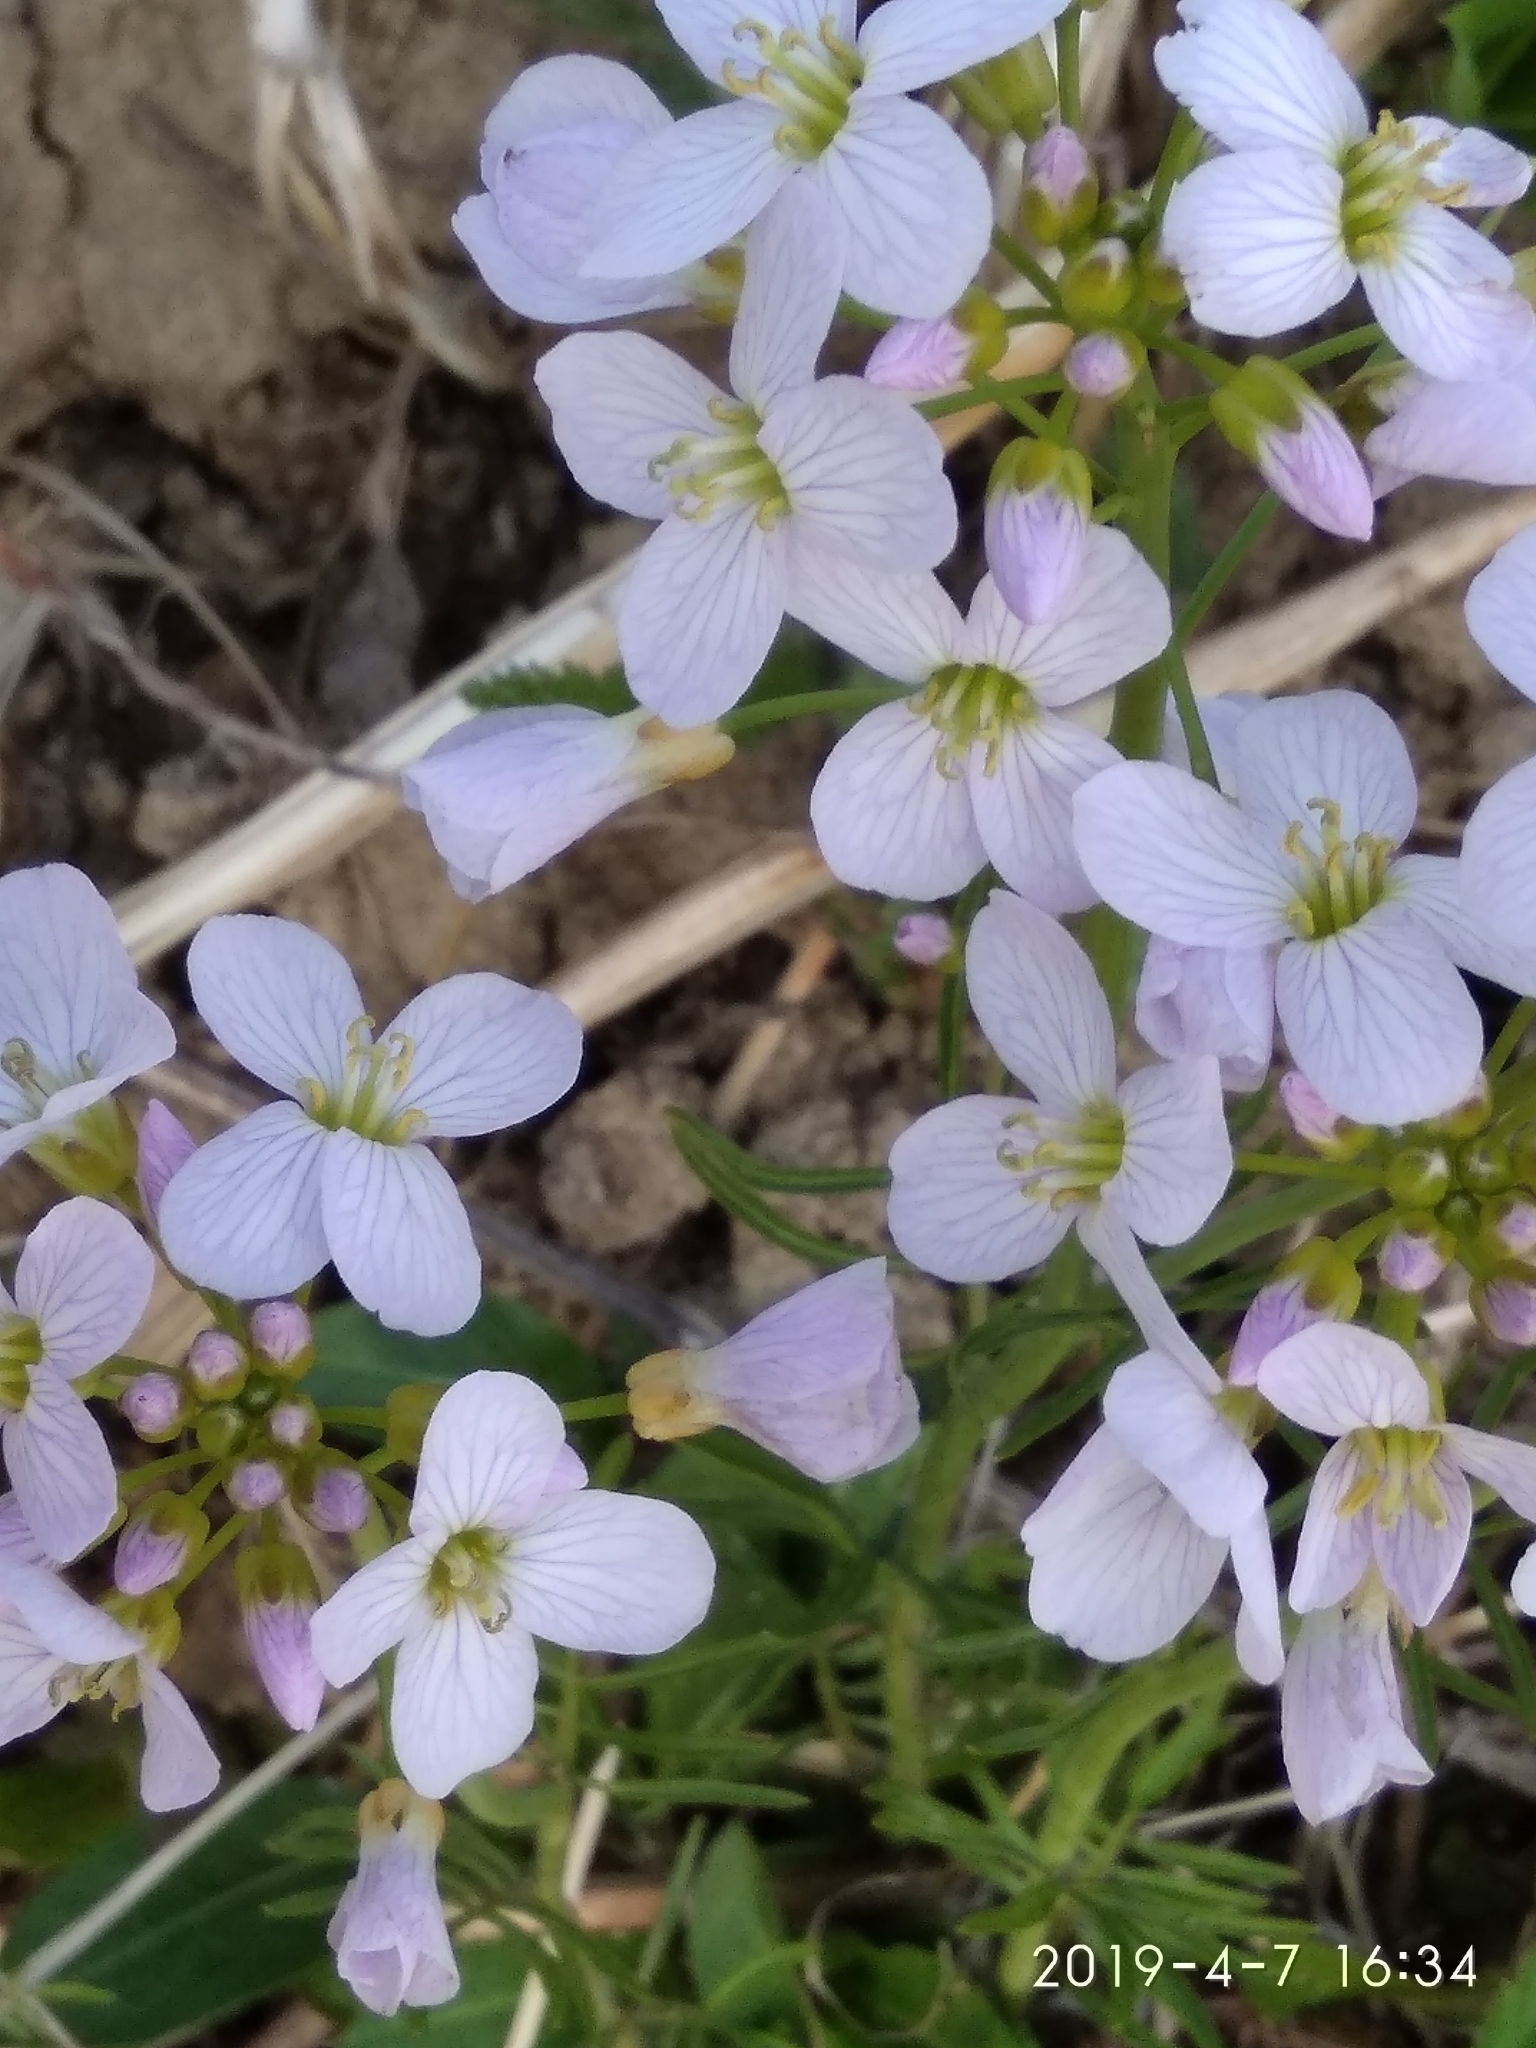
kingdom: Plantae
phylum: Tracheophyta
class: Magnoliopsida
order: Brassicales
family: Brassicaceae
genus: Cardamine
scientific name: Cardamine pratensis
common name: Cuckoo flower
